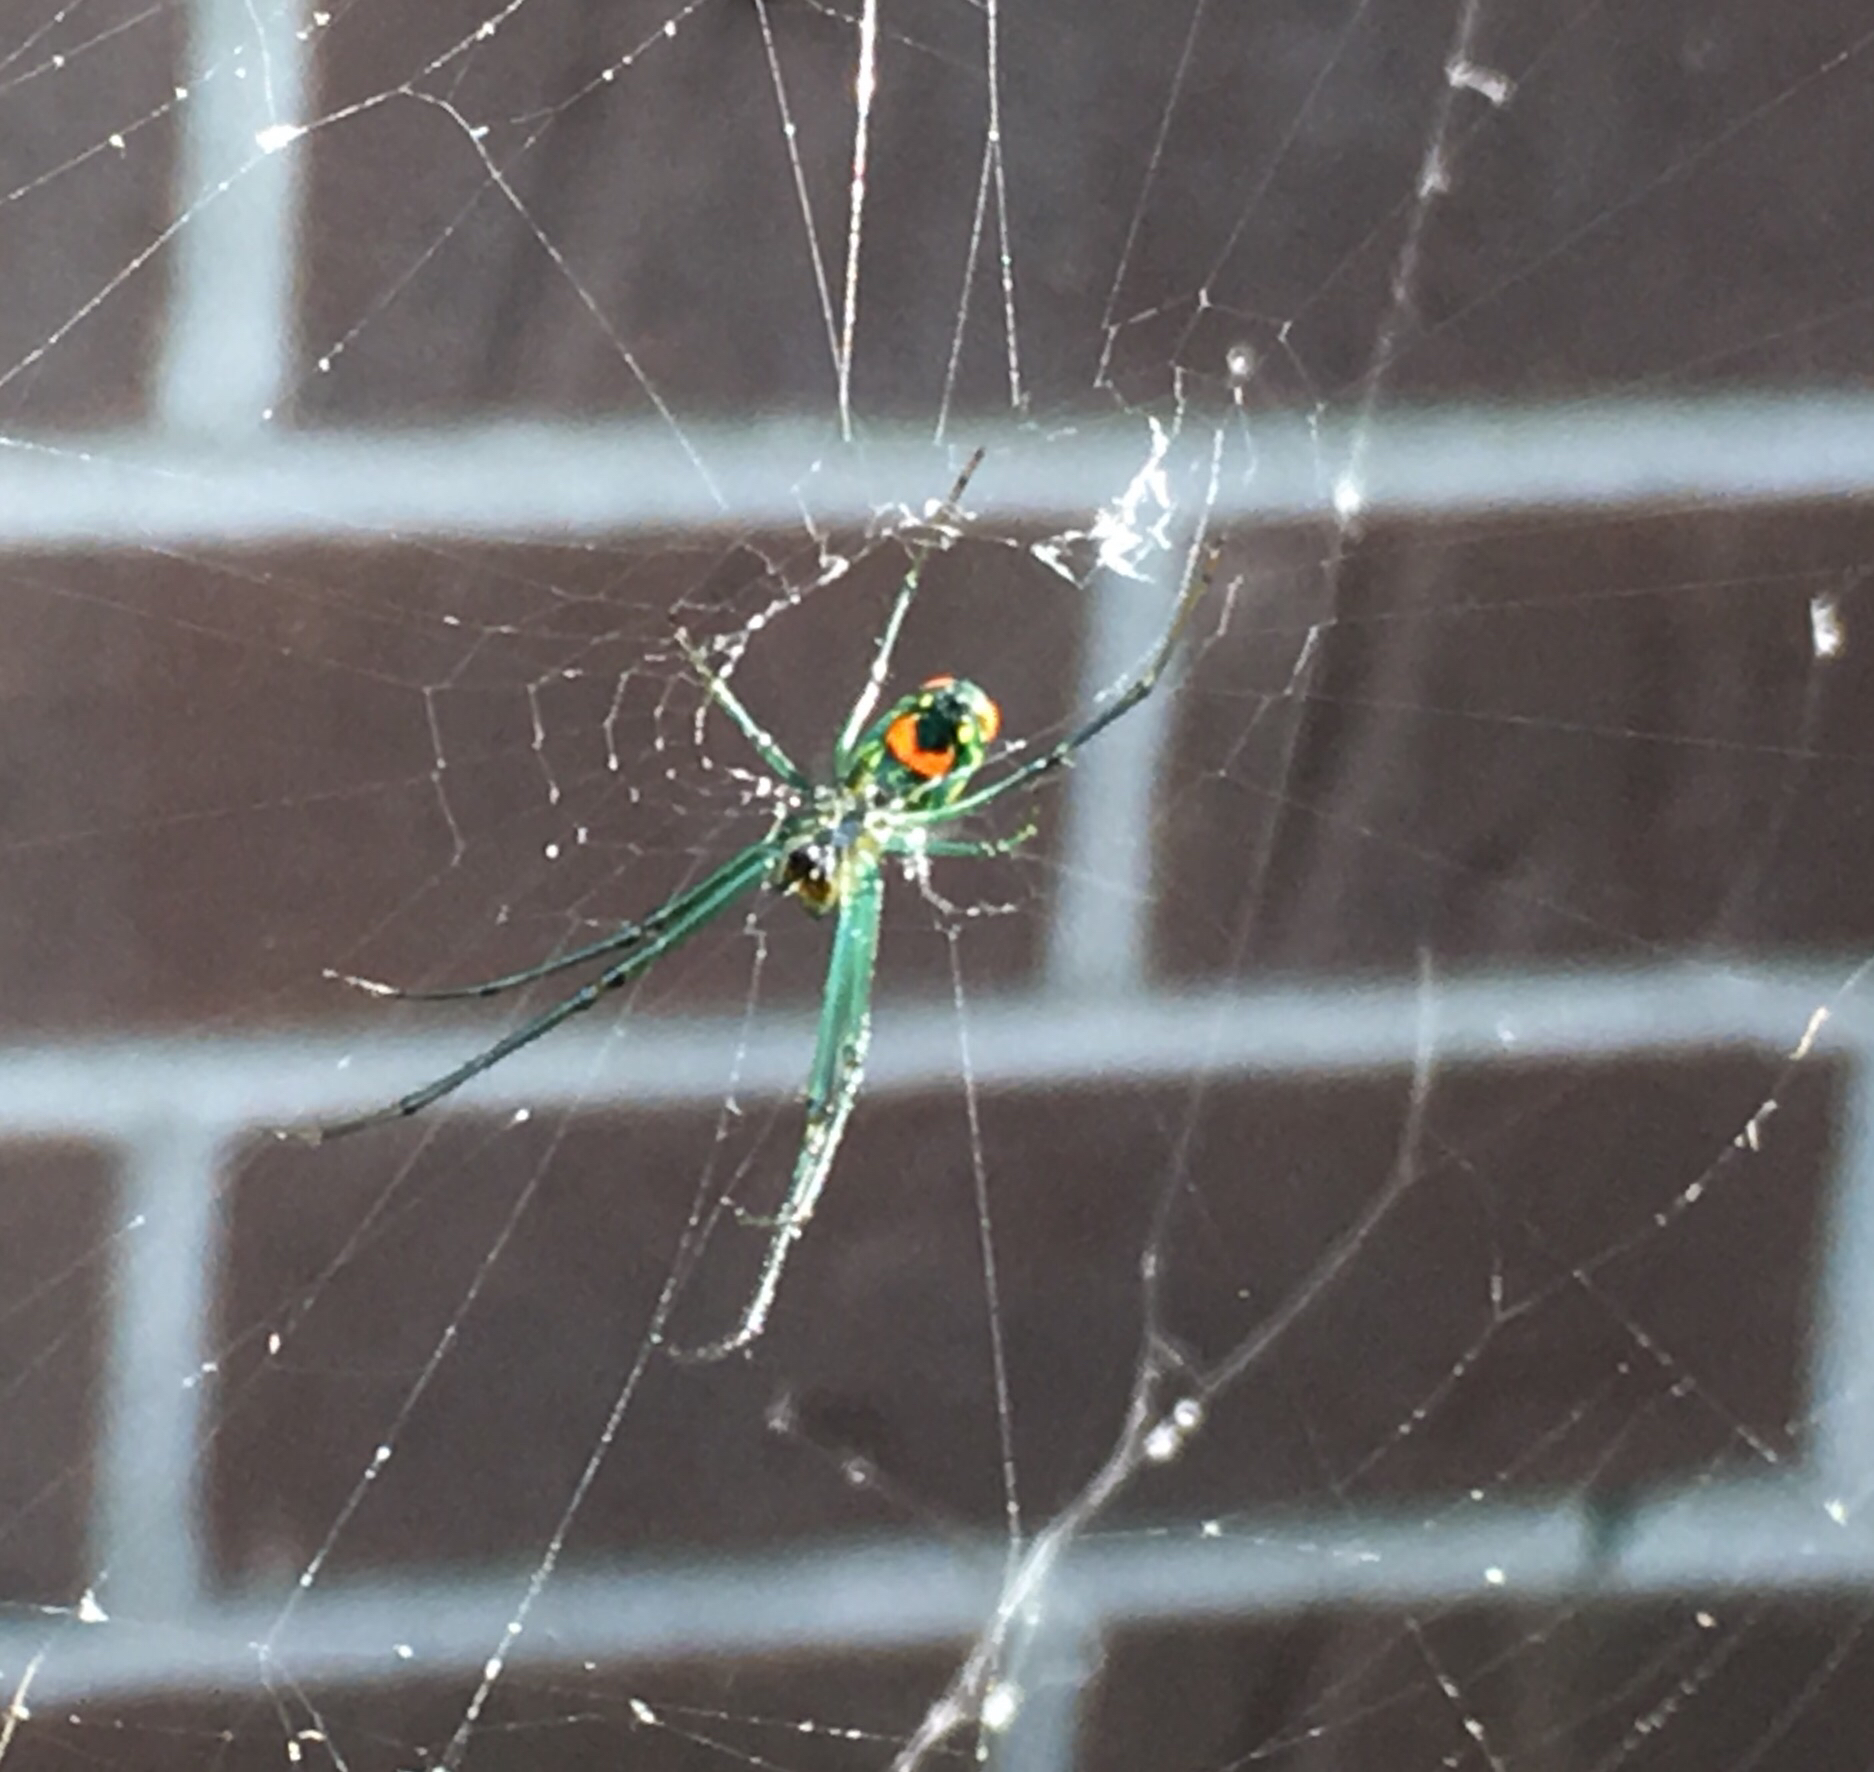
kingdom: Animalia
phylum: Arthropoda
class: Arachnida
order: Araneae
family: Tetragnathidae
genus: Leucauge
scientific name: Leucauge argyrobapta
